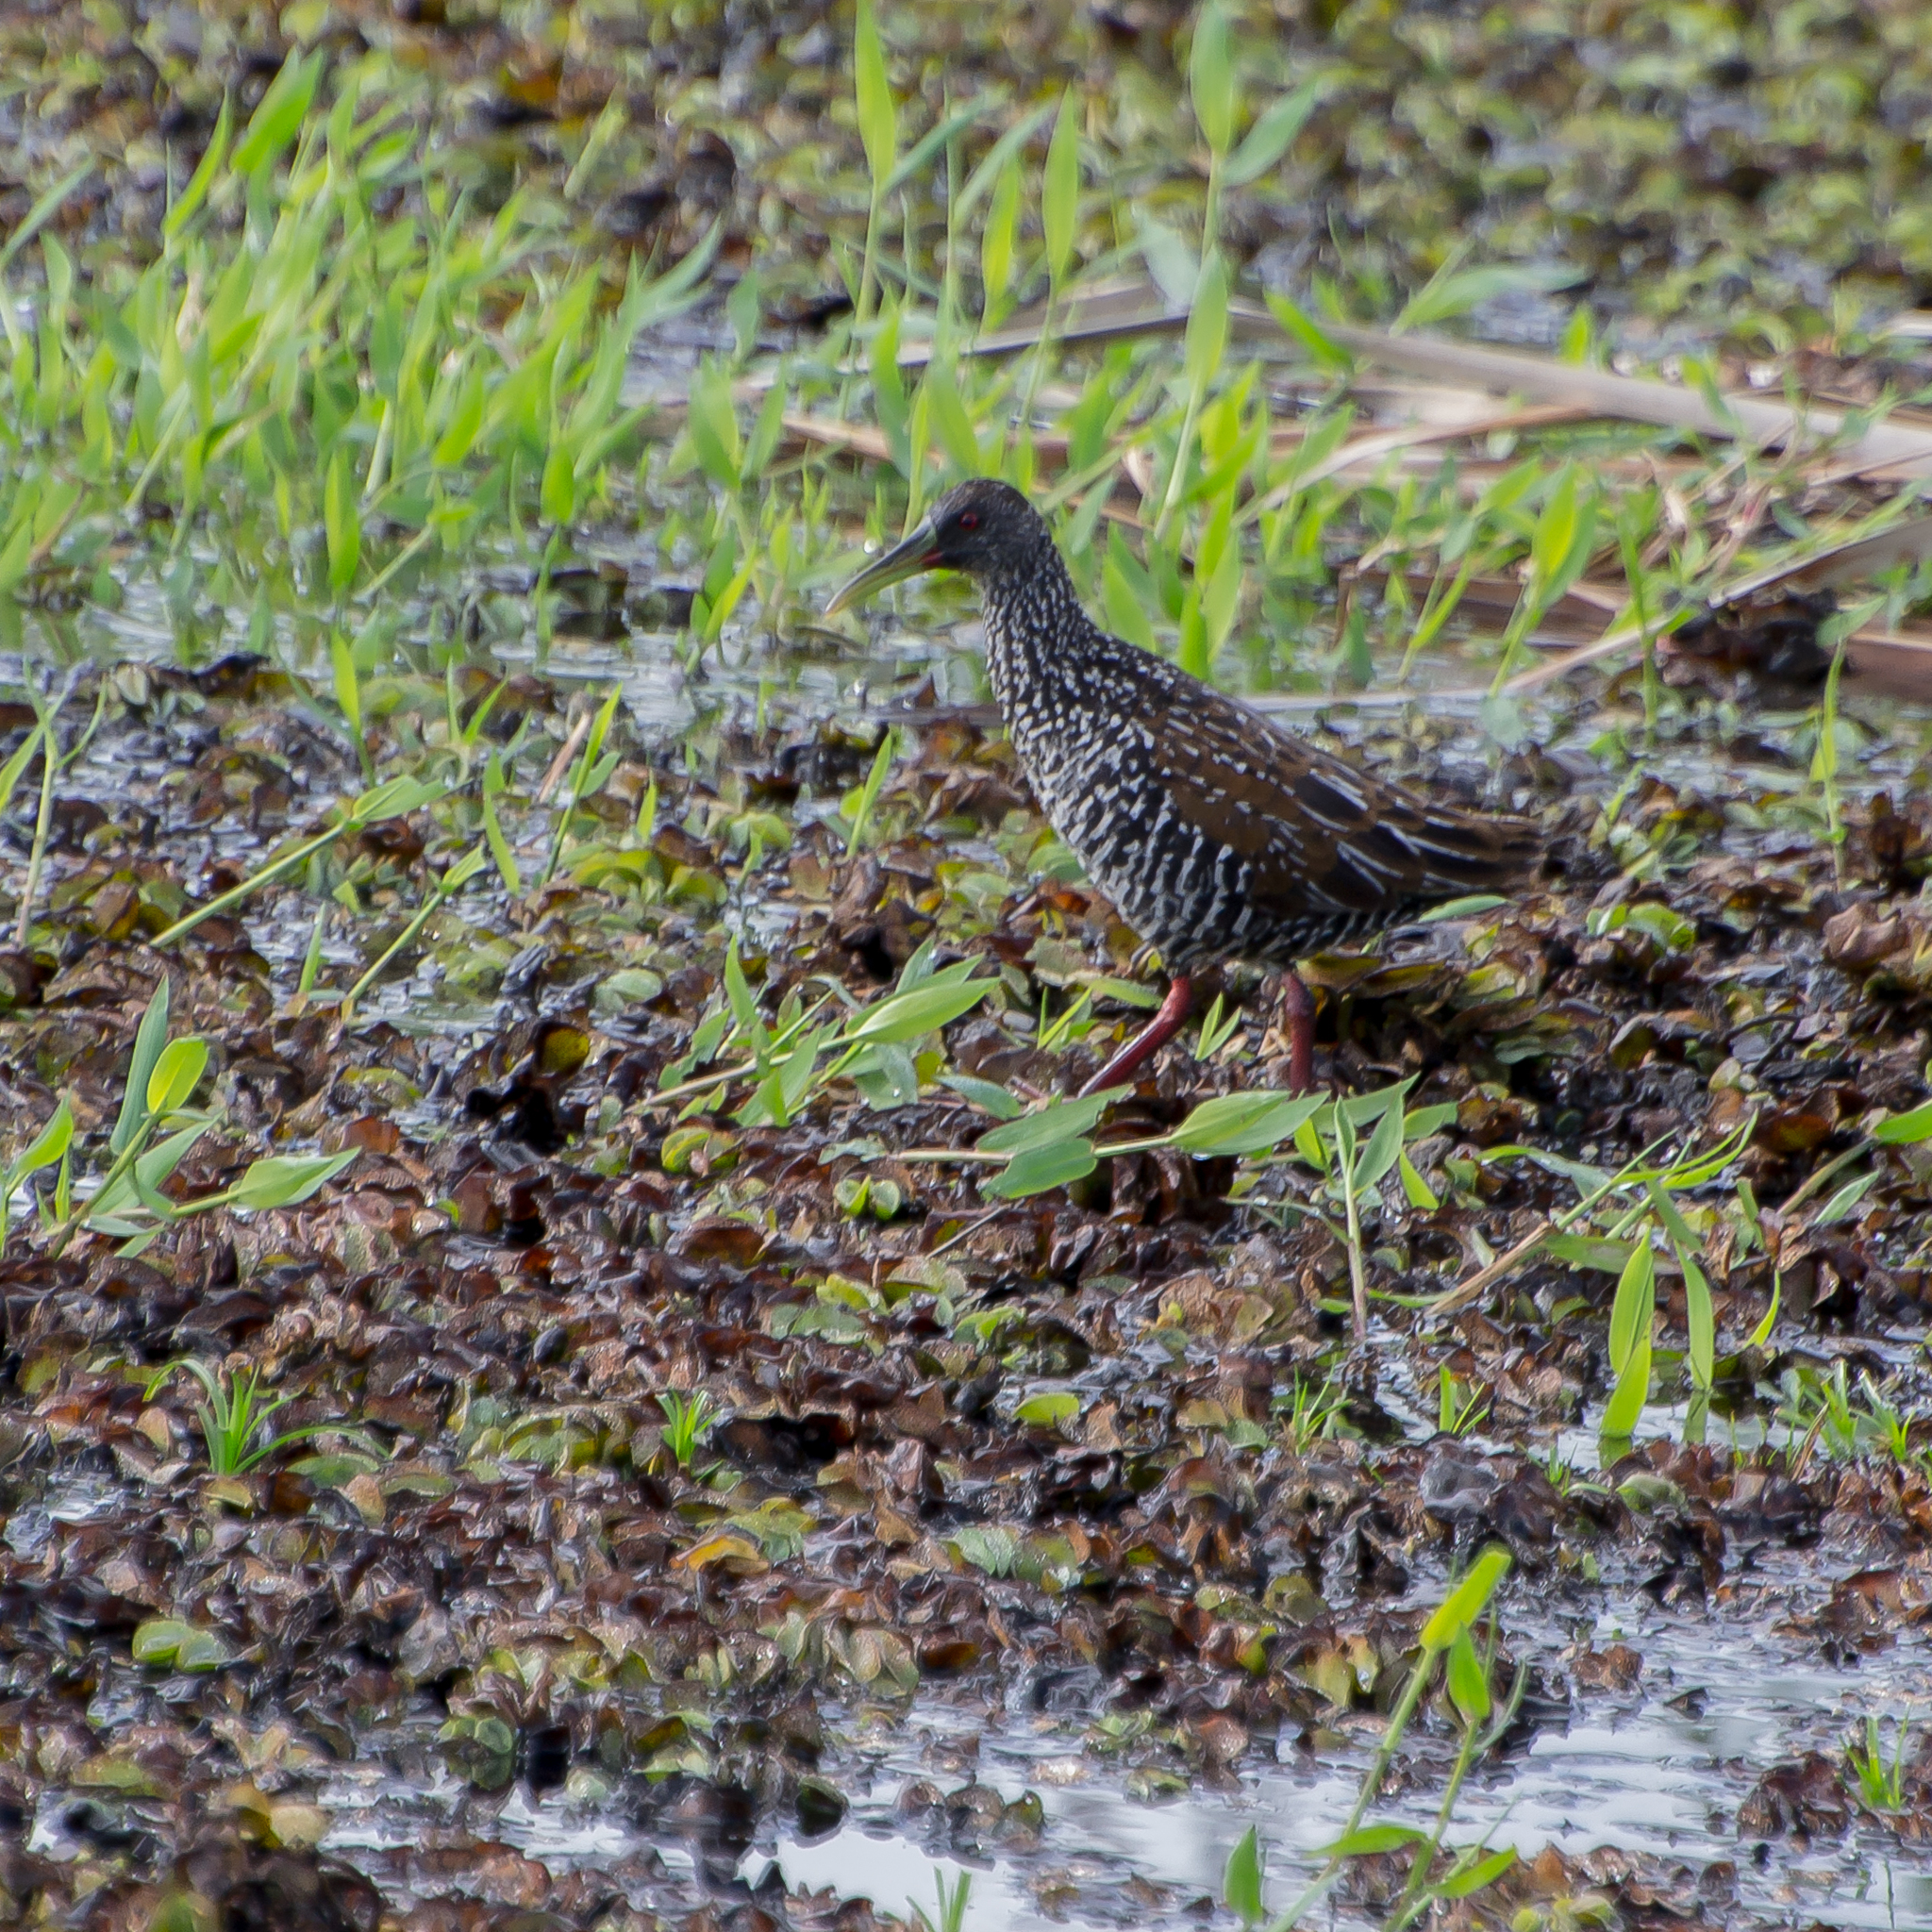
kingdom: Animalia
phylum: Chordata
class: Aves
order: Gruiformes
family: Rallidae
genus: Pardirallus
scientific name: Pardirallus maculatus
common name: Spotted rail
